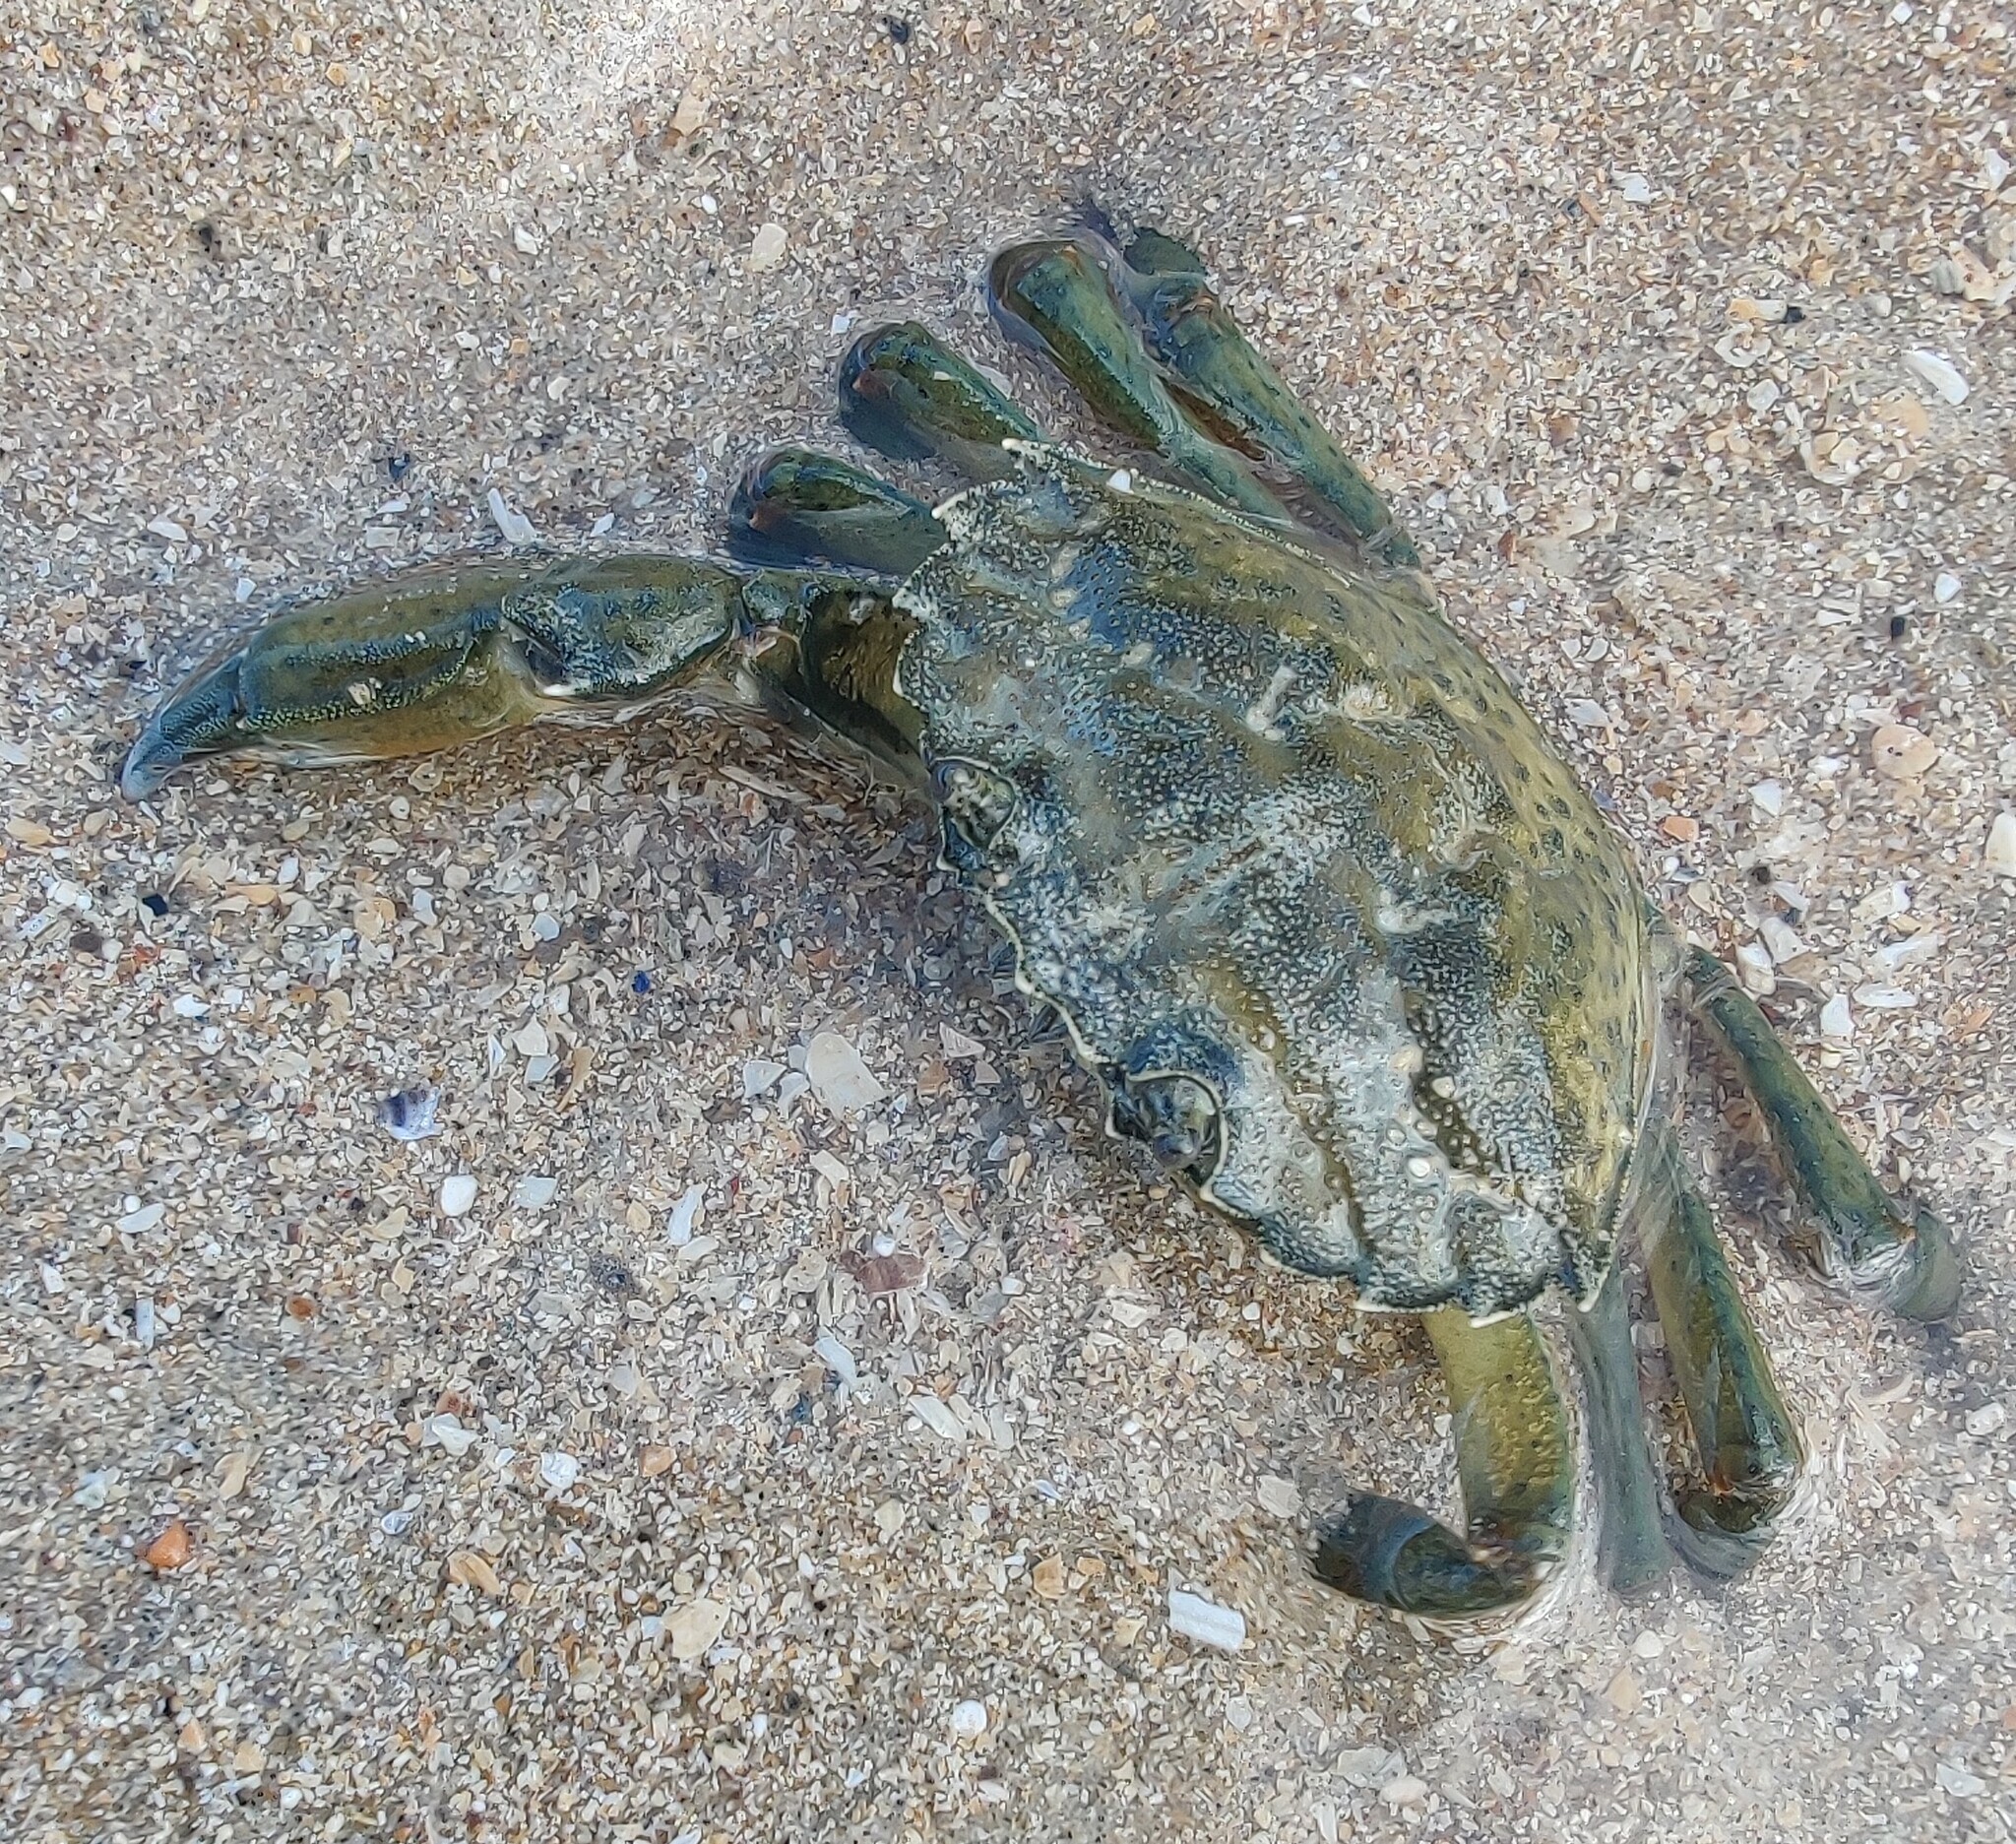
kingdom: Animalia
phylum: Arthropoda
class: Malacostraca
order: Decapoda
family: Carcinidae
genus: Carcinus
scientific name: Carcinus maenas
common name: European green crab
